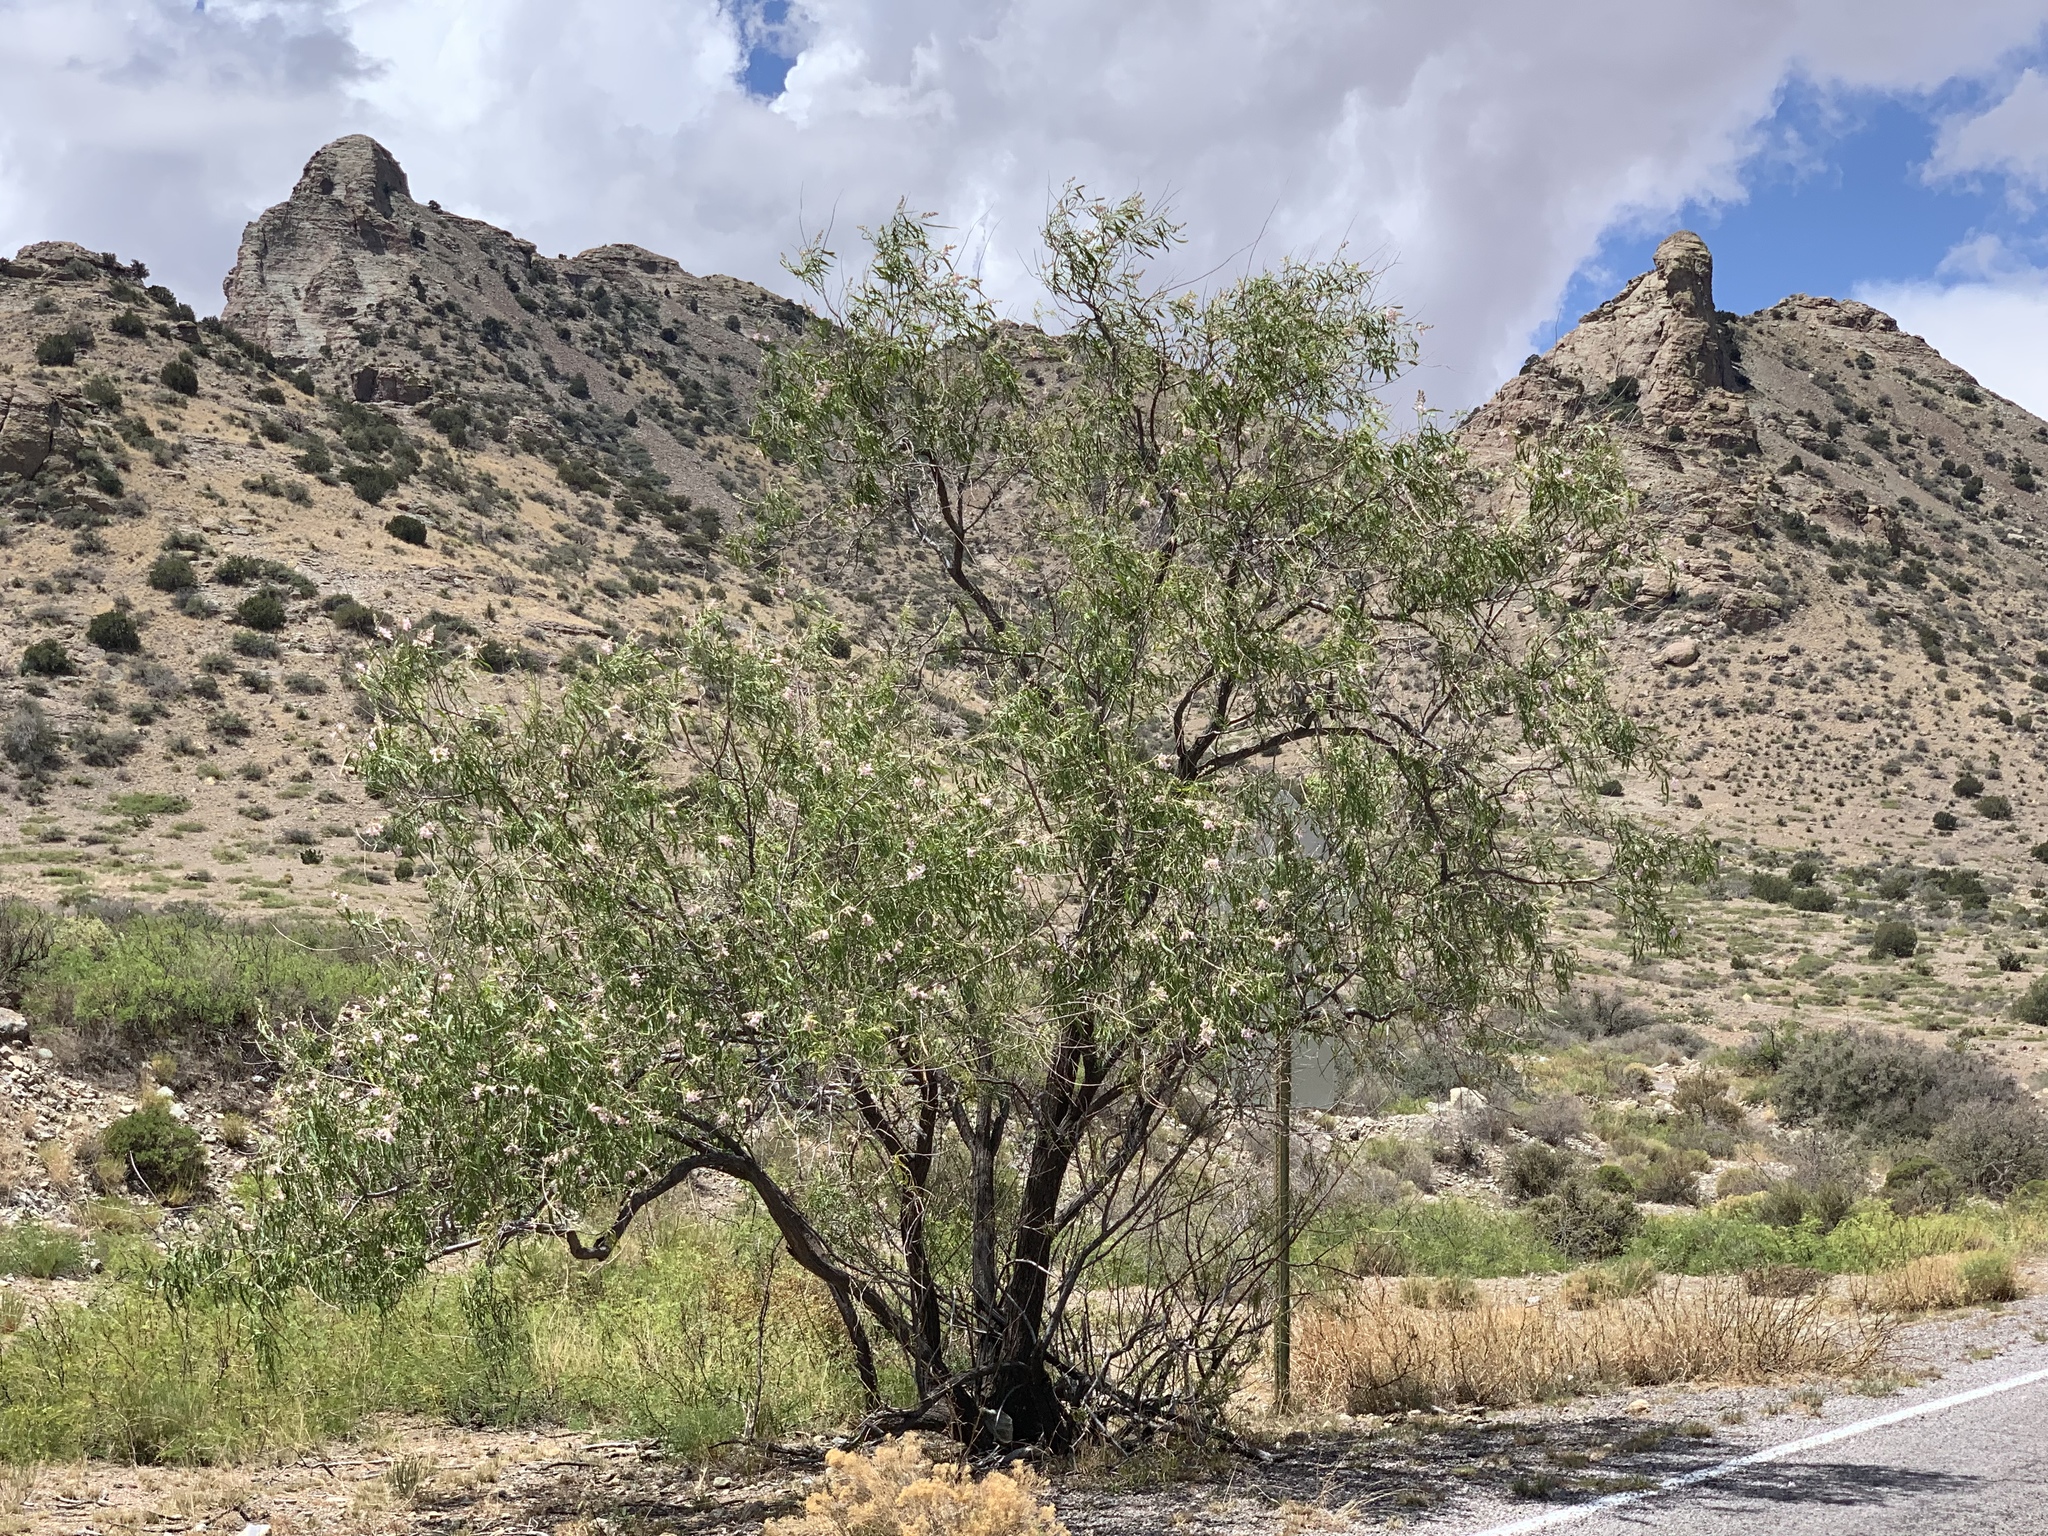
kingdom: Plantae
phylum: Tracheophyta
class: Magnoliopsida
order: Lamiales
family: Bignoniaceae
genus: Chilopsis
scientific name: Chilopsis linearis
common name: Desert-willow
